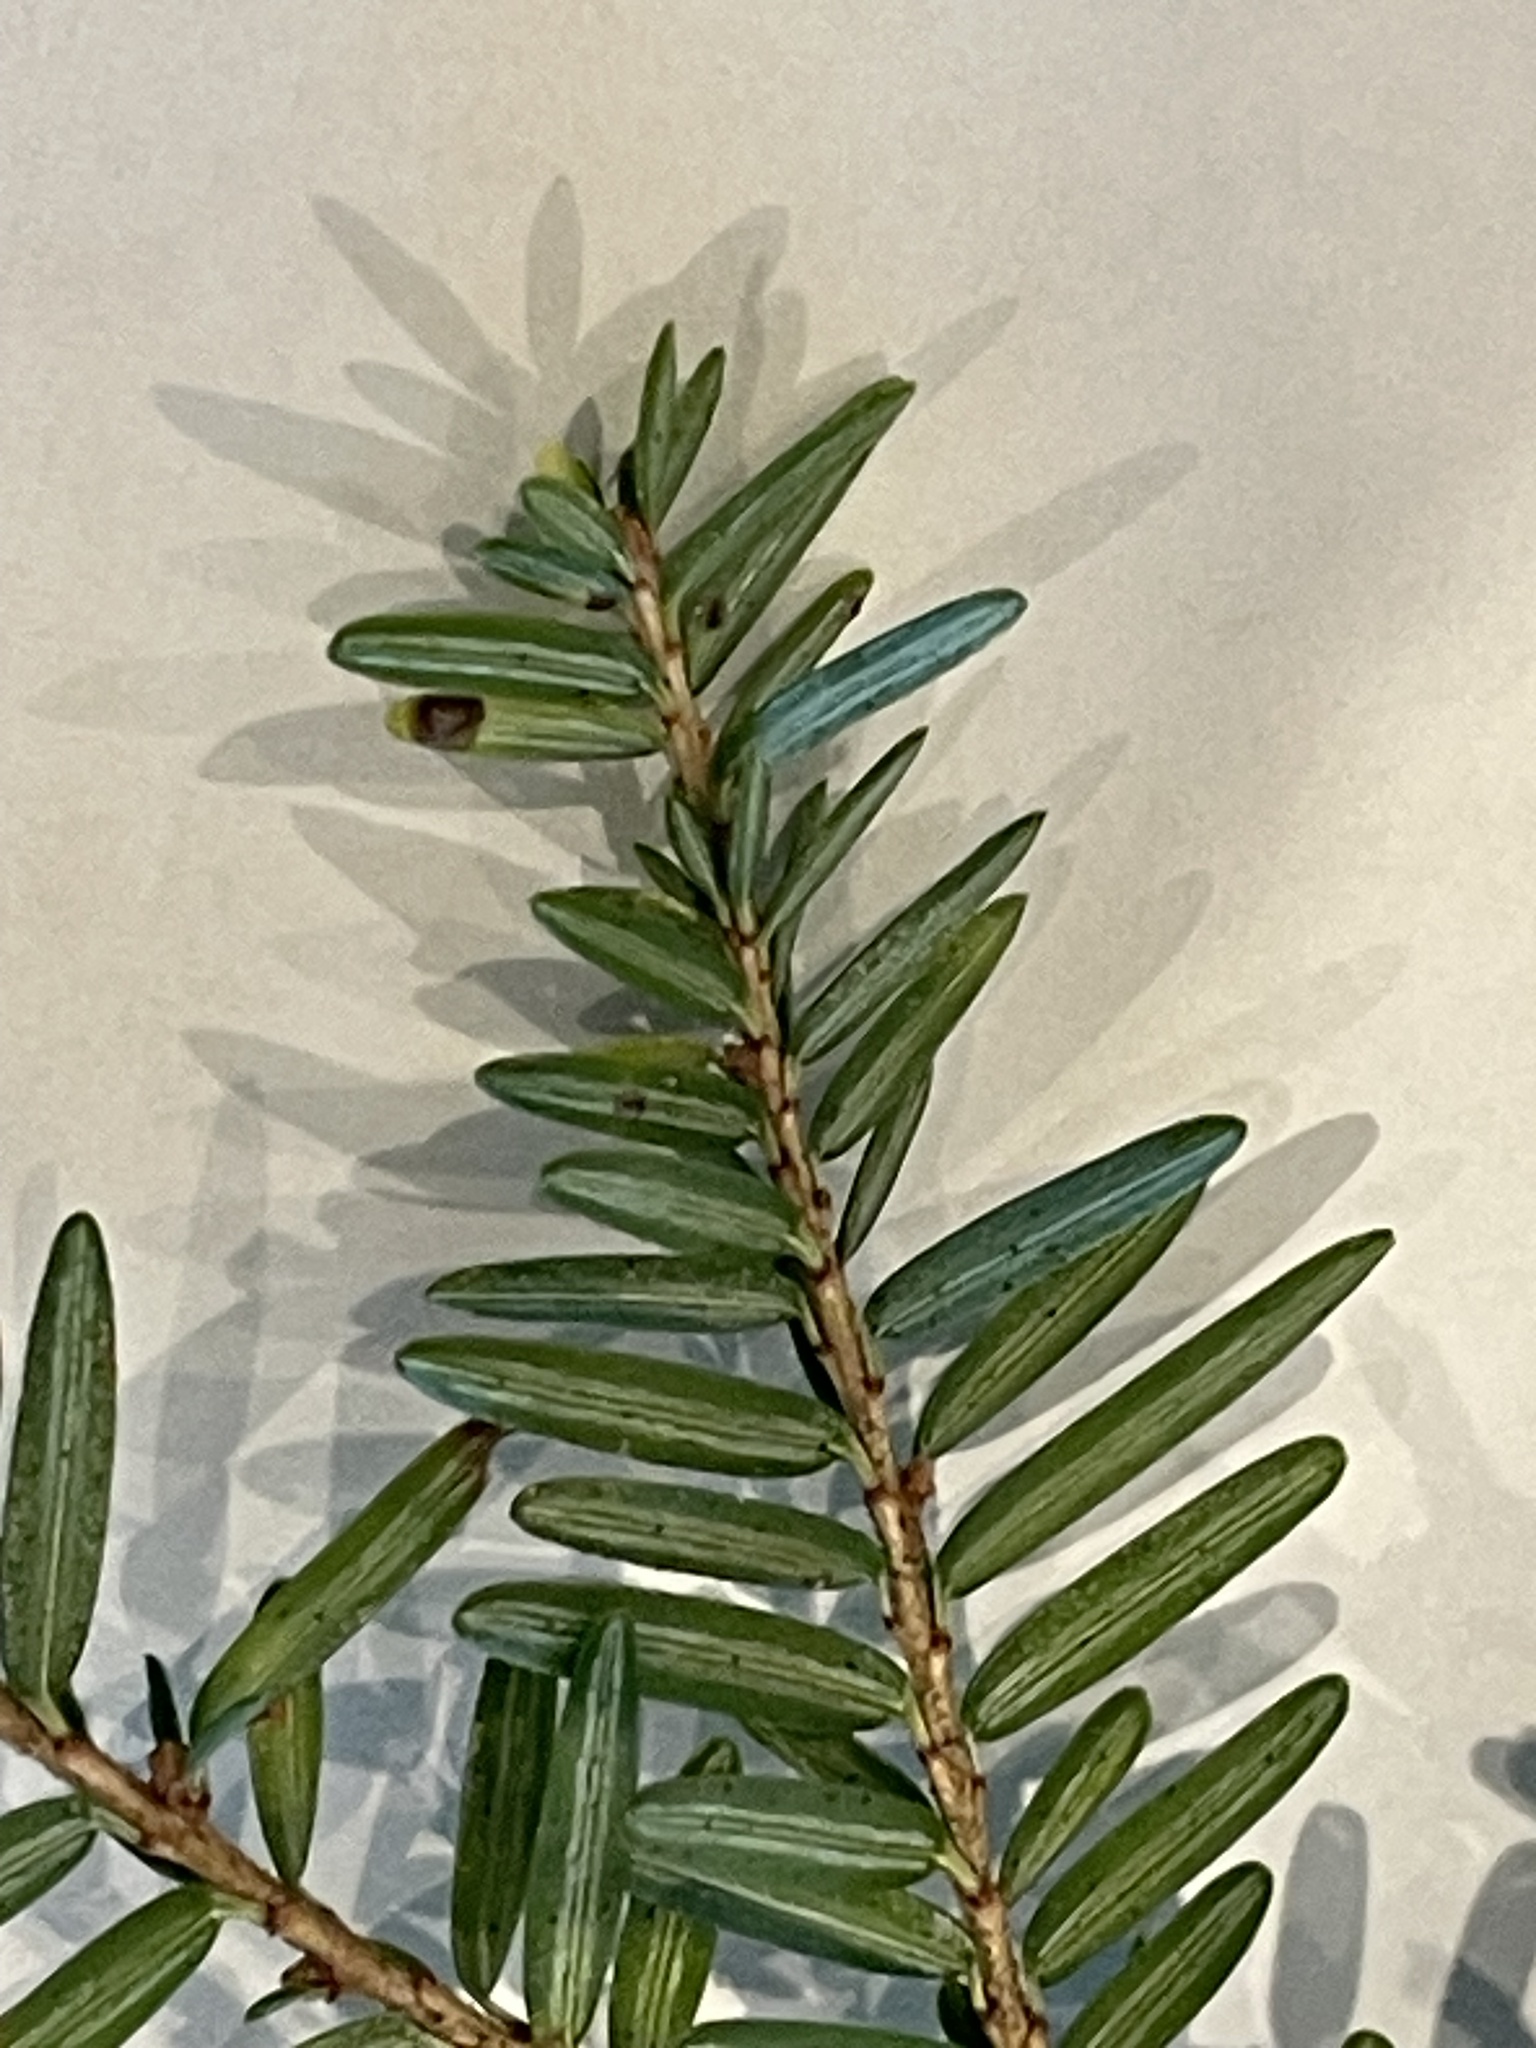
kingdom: Plantae
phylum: Tracheophyta
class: Pinopsida
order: Pinales
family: Pinaceae
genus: Tsuga
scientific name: Tsuga canadensis
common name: Eastern hemlock
